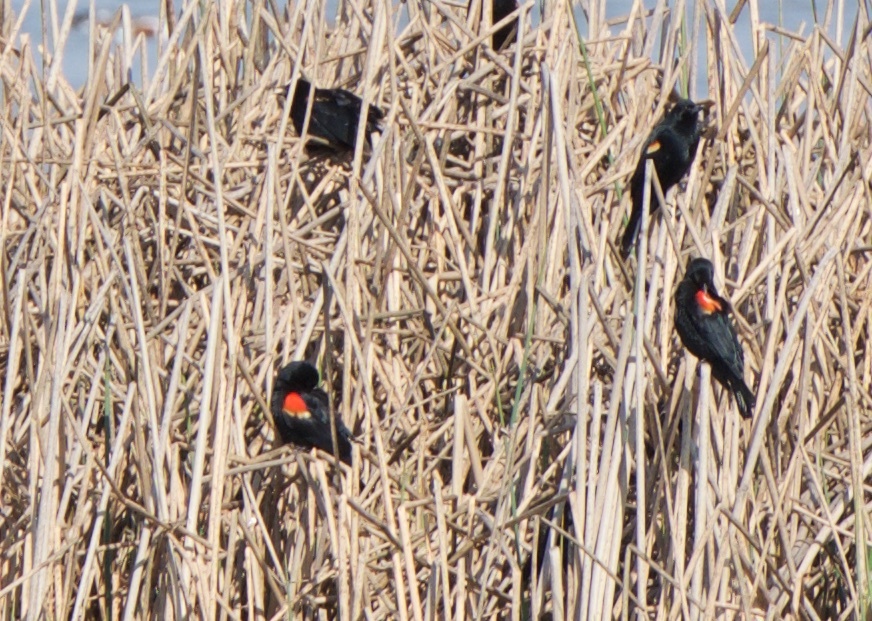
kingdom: Animalia
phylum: Chordata
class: Aves
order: Passeriformes
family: Icteridae
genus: Agelaius
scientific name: Agelaius phoeniceus
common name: Red-winged blackbird
